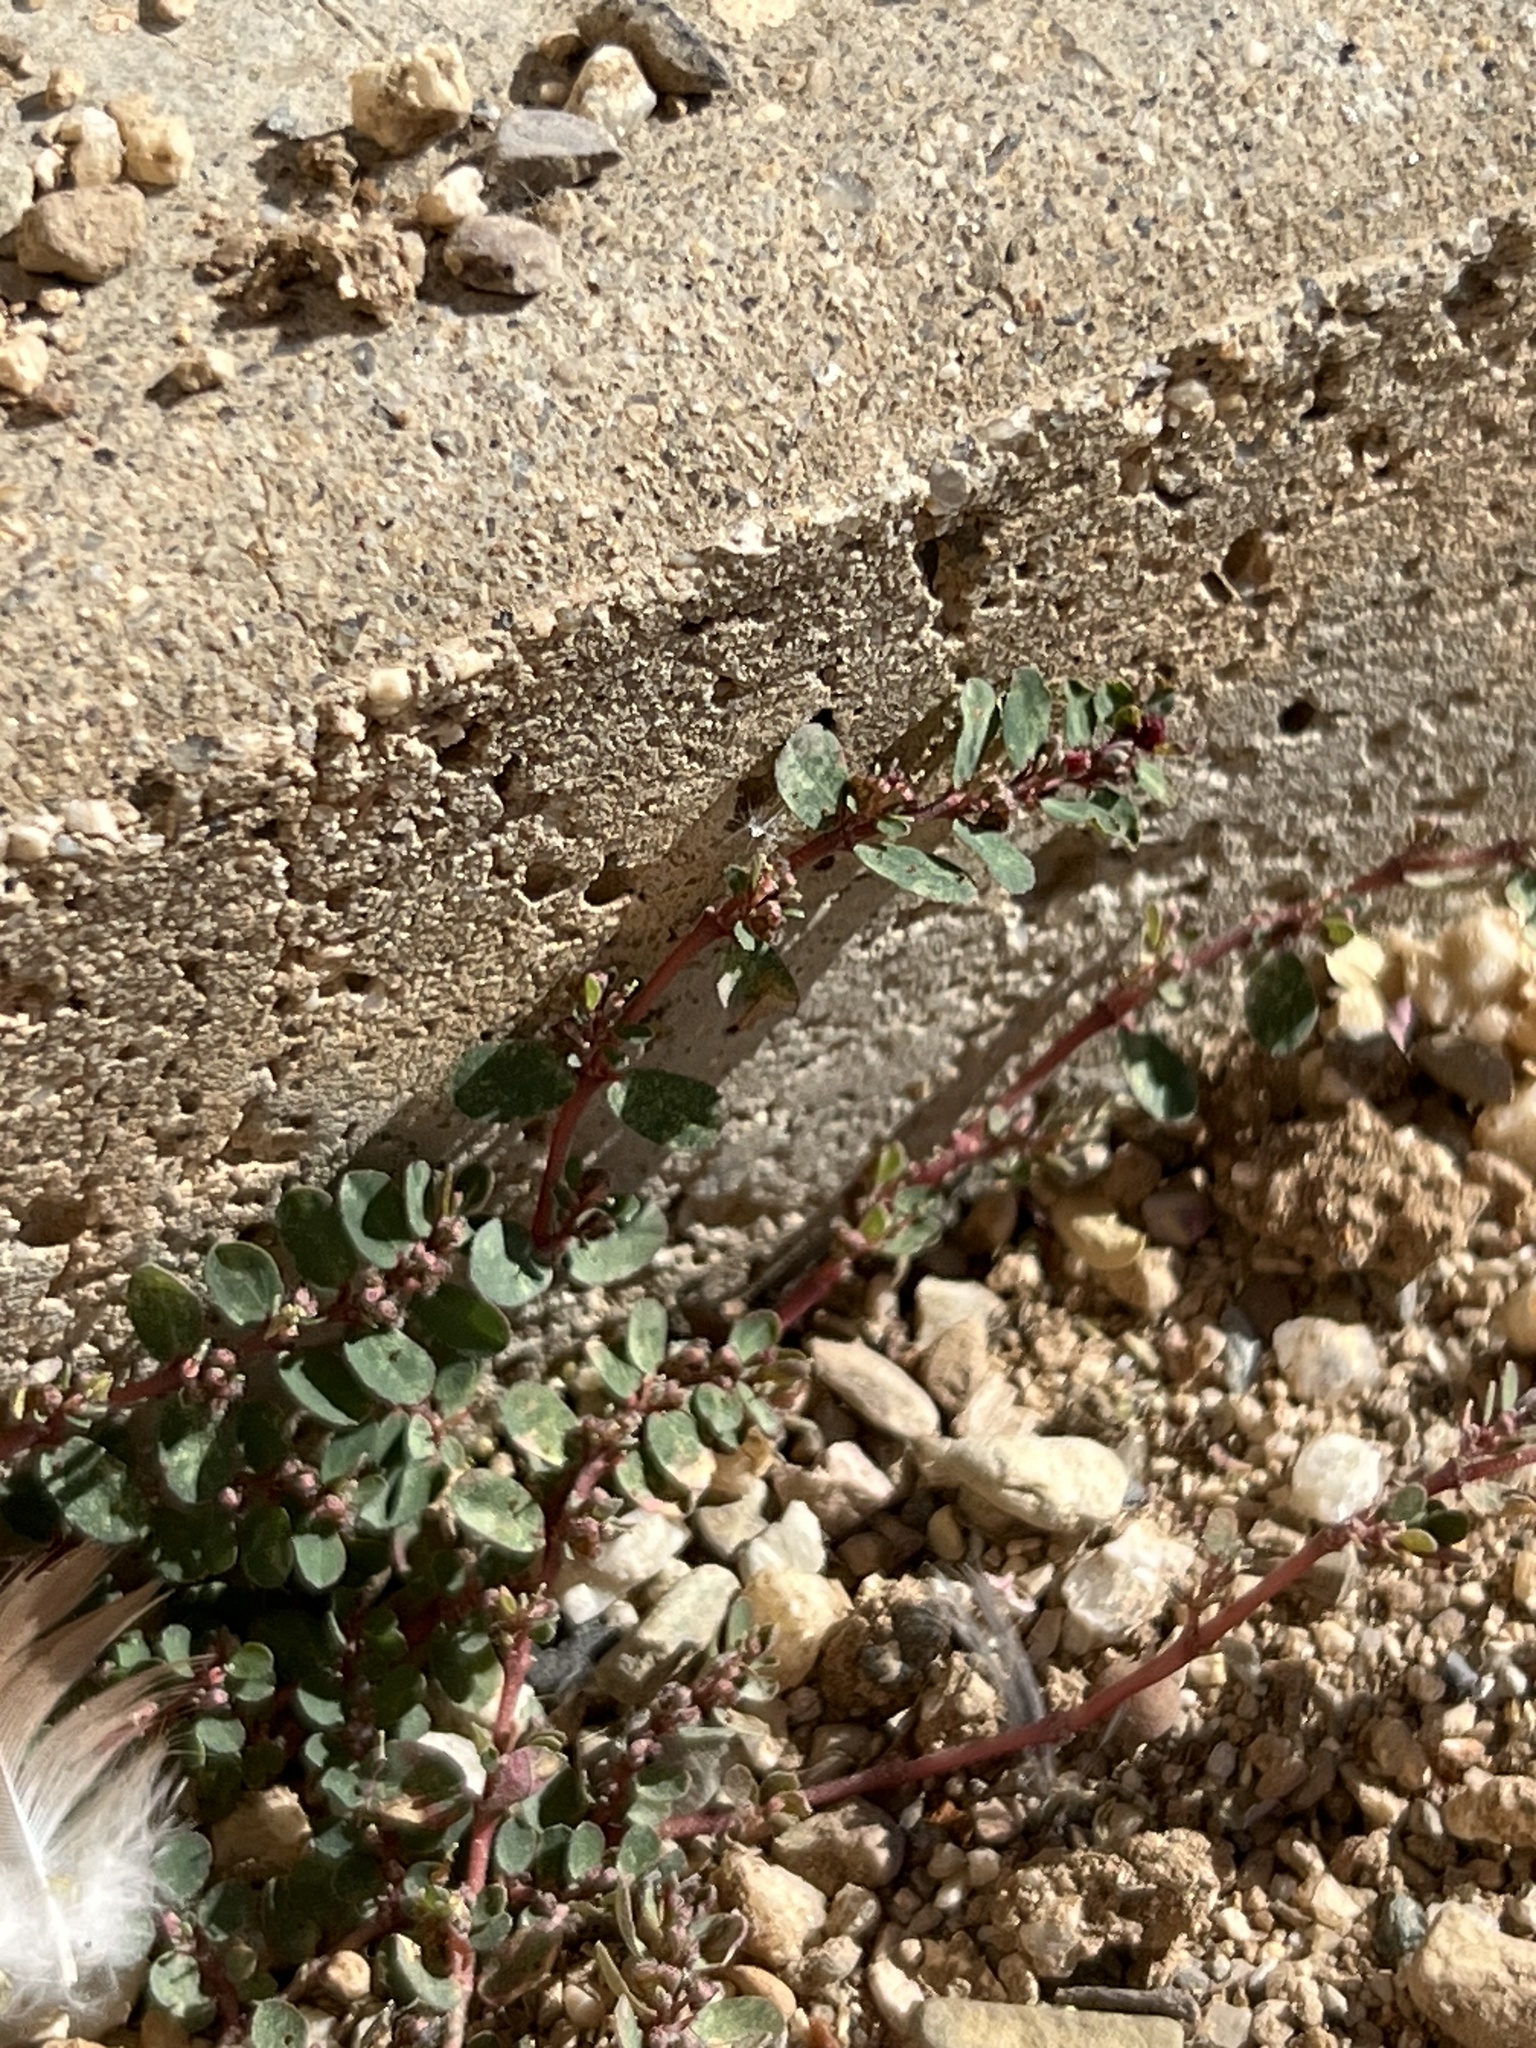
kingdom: Plantae
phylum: Tracheophyta
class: Magnoliopsida
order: Malpighiales
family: Euphorbiaceae
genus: Euphorbia
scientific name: Euphorbia prostrata
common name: Prostrate sandmat
